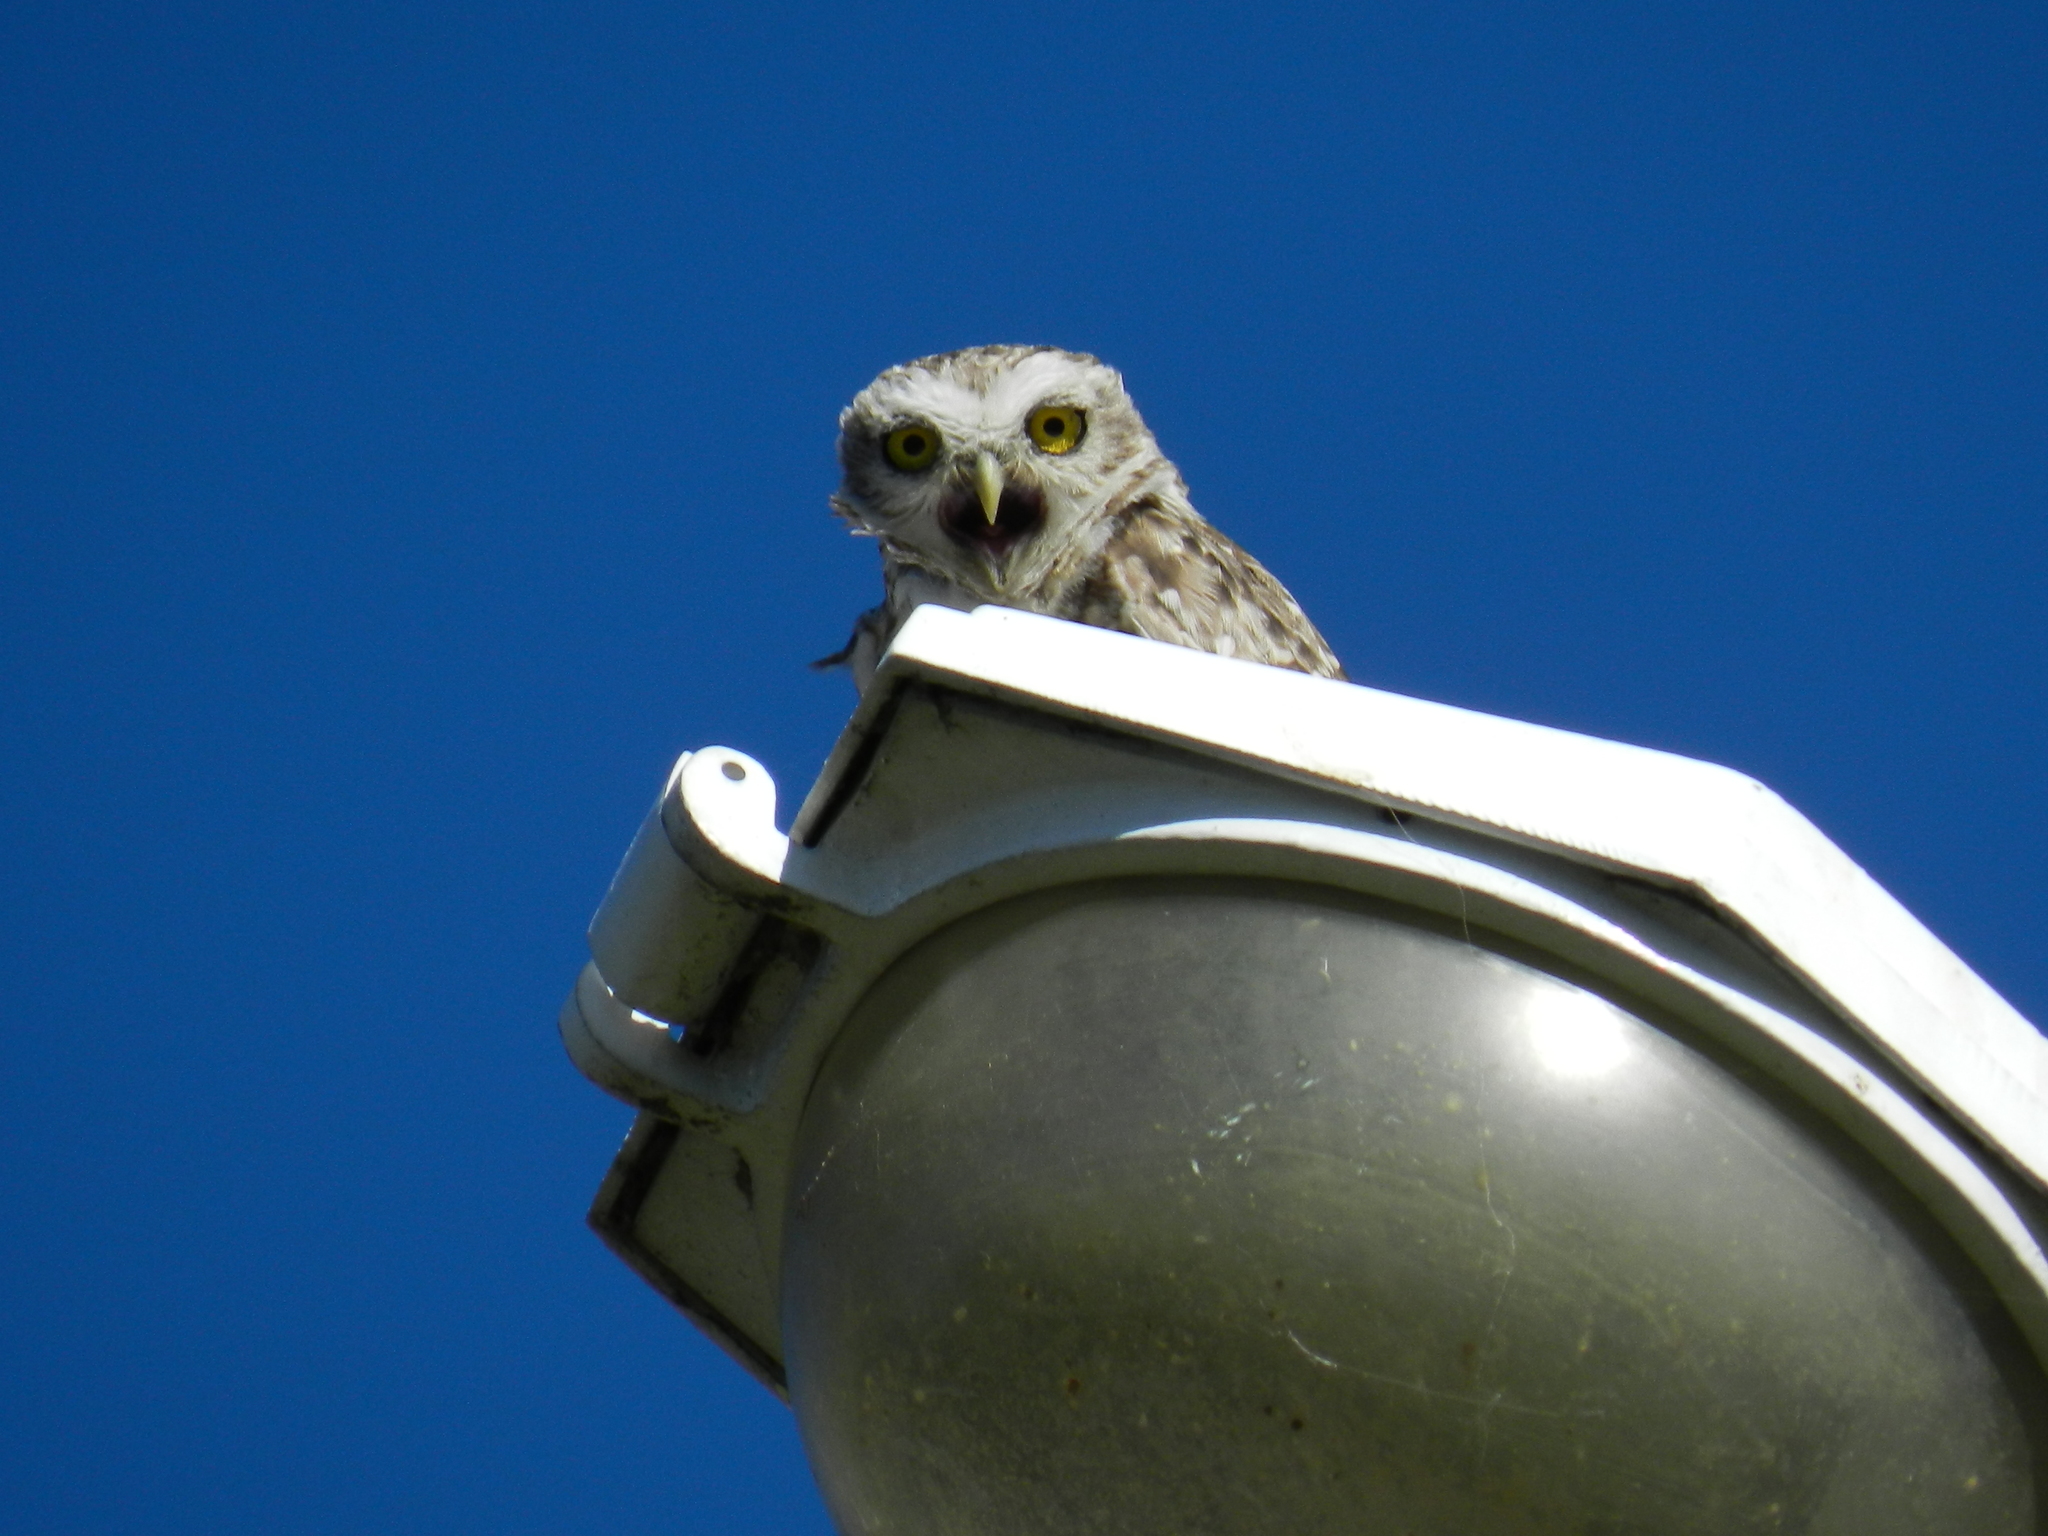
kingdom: Animalia
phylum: Chordata
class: Aves
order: Strigiformes
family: Strigidae
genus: Athene
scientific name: Athene cunicularia
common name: Burrowing owl
